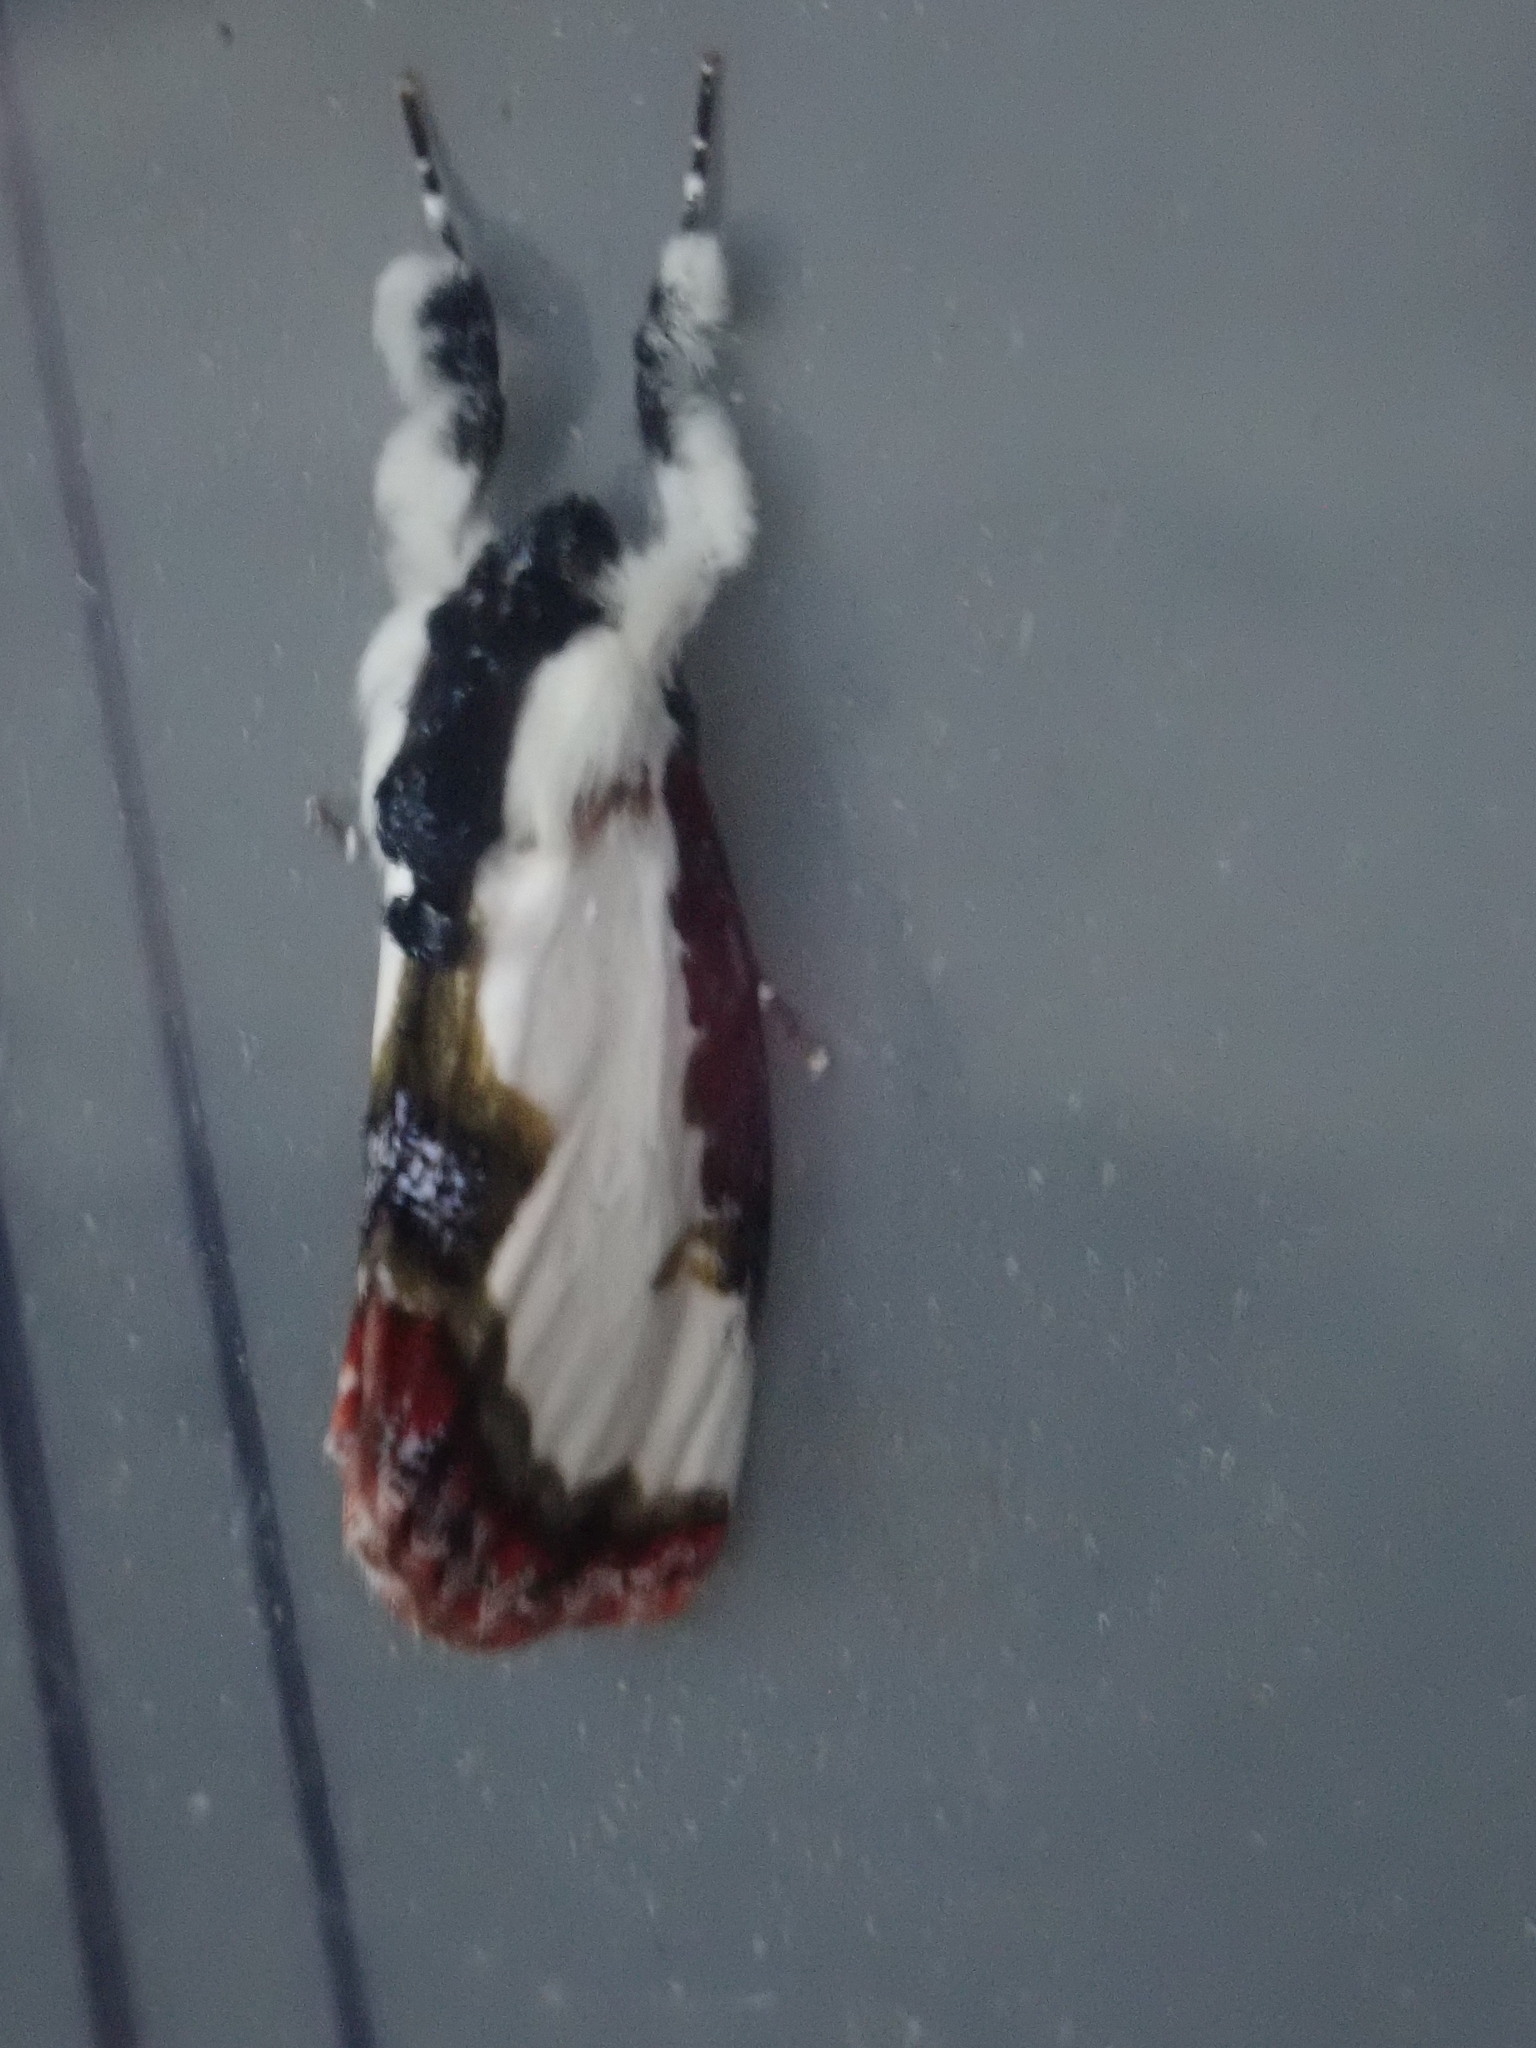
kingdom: Animalia
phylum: Arthropoda
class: Insecta
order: Lepidoptera
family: Noctuidae
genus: Eudryas
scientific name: Eudryas unio
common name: Pearly wood-nymph
